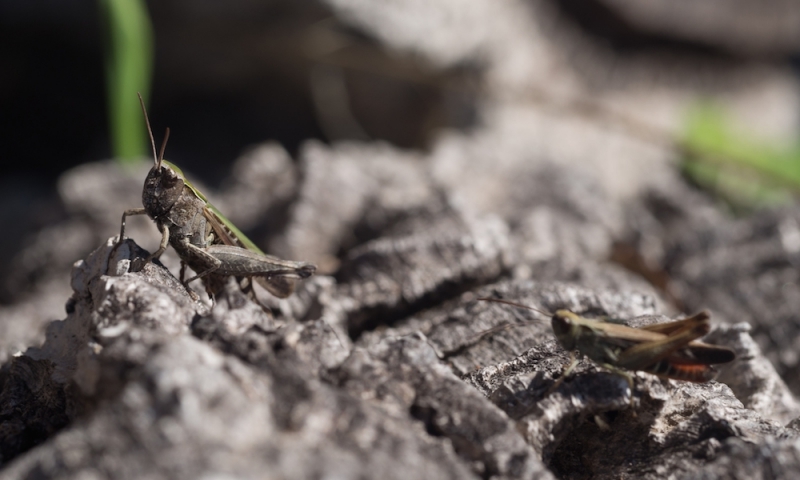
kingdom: Animalia
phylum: Arthropoda
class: Insecta
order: Orthoptera
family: Acrididae
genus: Omocestus
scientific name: Omocestus rufipes
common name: Woodland grasshopper
